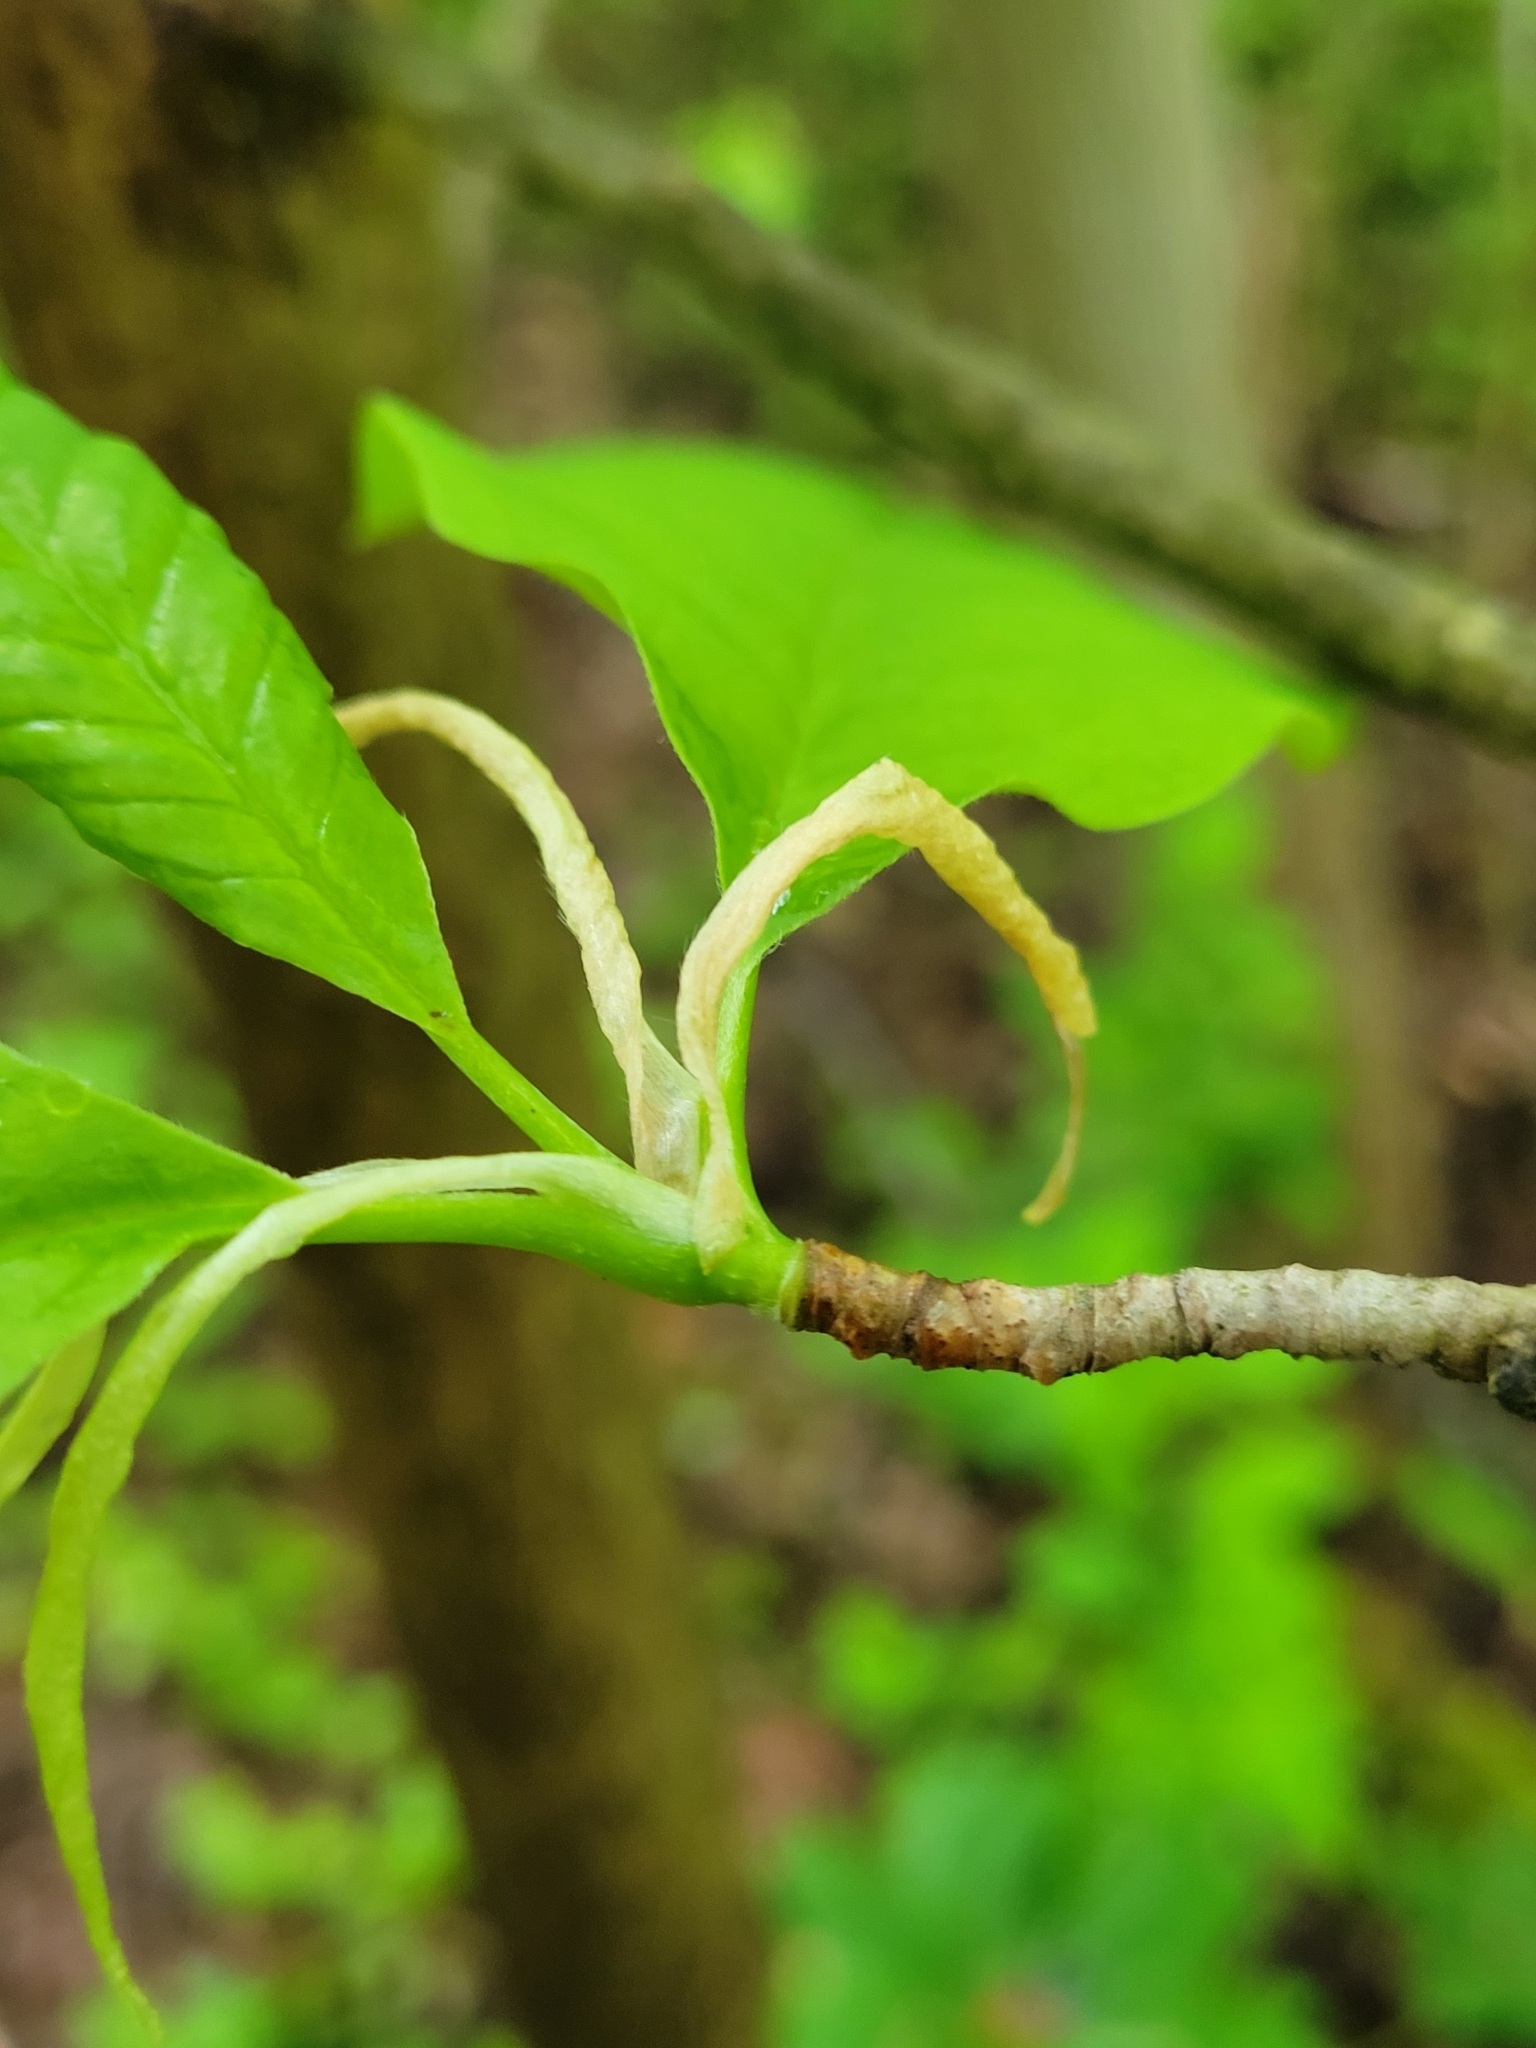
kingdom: Plantae
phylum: Tracheophyta
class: Magnoliopsida
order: Magnoliales
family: Magnoliaceae
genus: Magnolia
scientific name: Magnolia acuminata
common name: Cucumber magnolia
